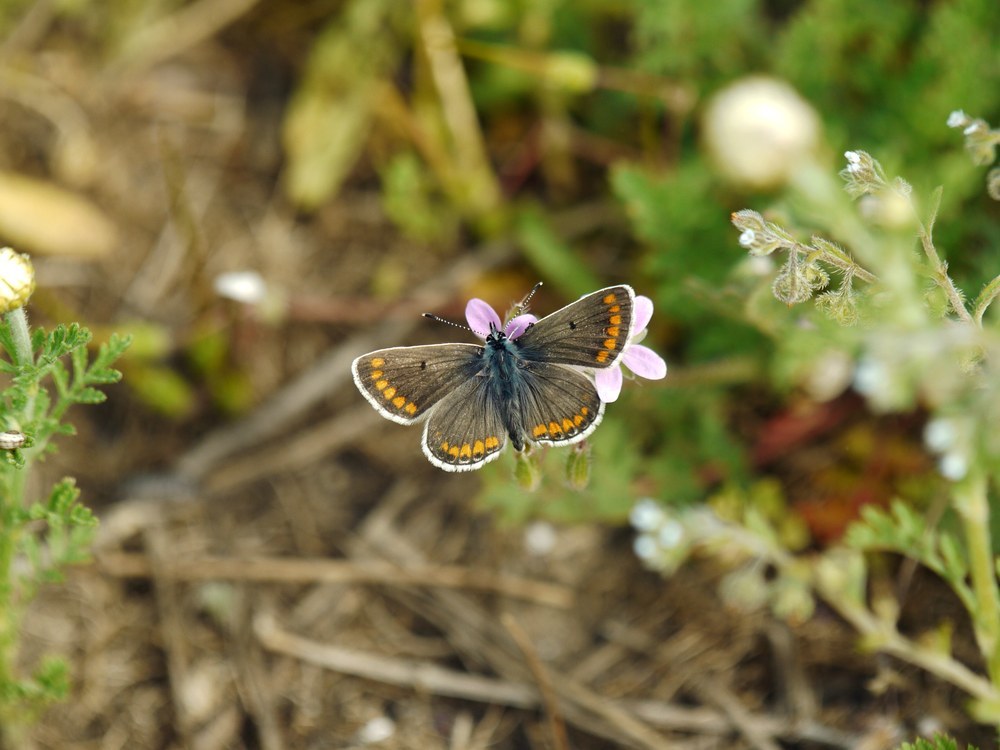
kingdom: Animalia
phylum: Arthropoda
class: Insecta
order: Lepidoptera
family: Lycaenidae
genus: Aricia
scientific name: Aricia agestis
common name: Brown argus
